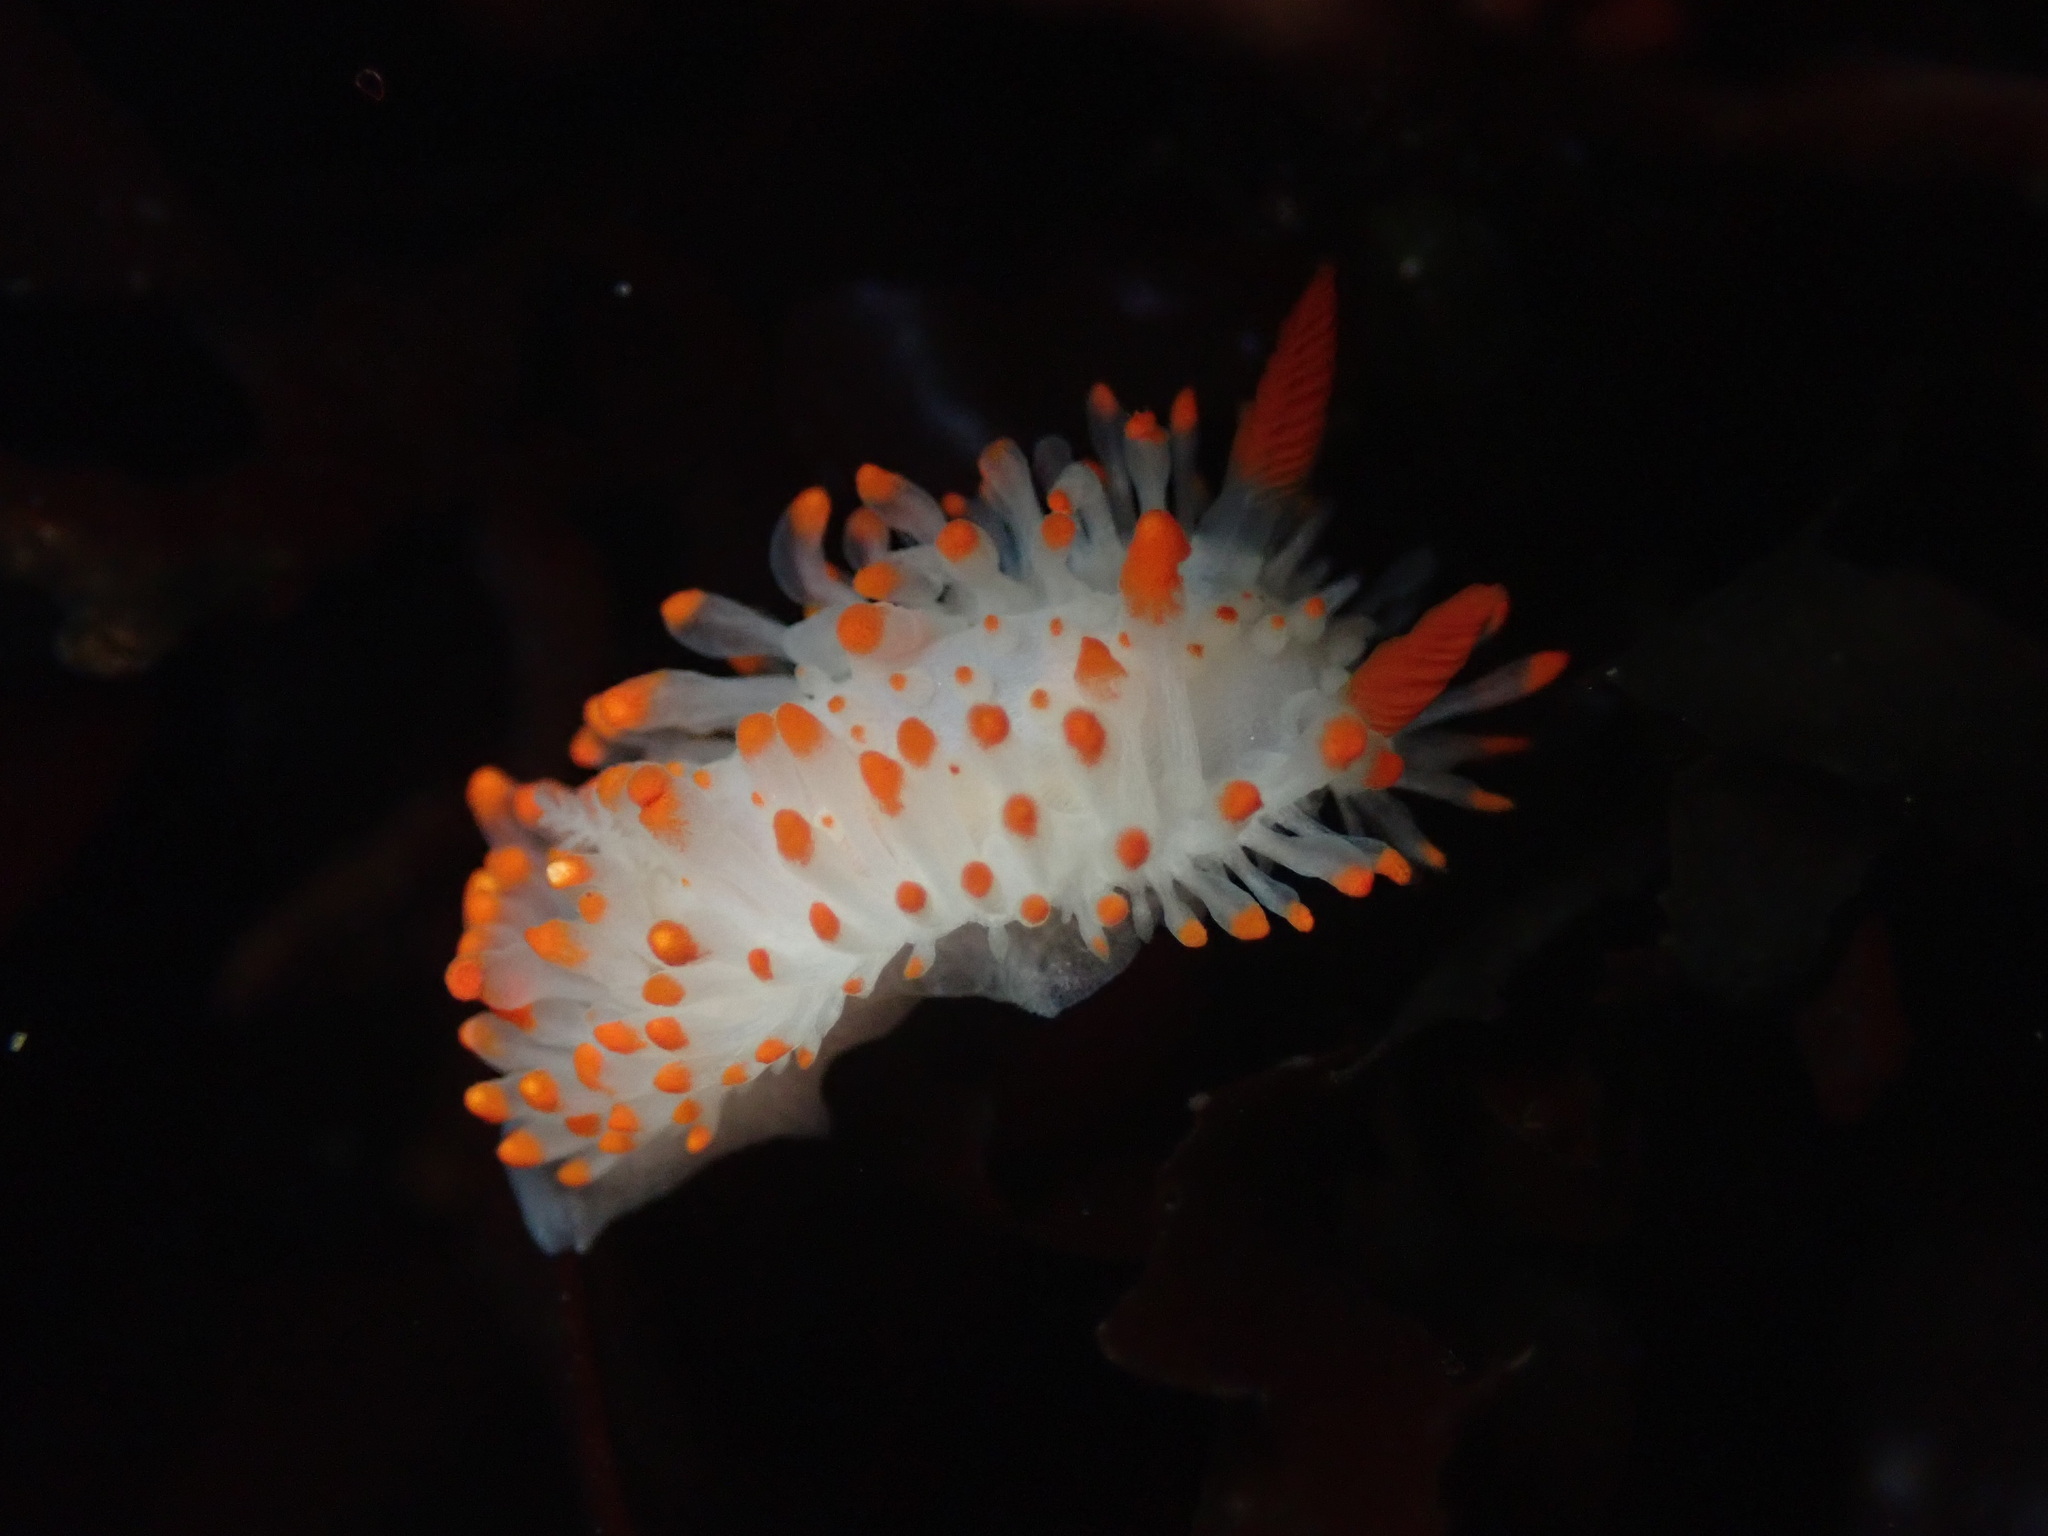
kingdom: Animalia
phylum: Mollusca
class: Gastropoda
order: Nudibranchia
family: Polyceridae
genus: Limacia
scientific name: Limacia cockerelli
